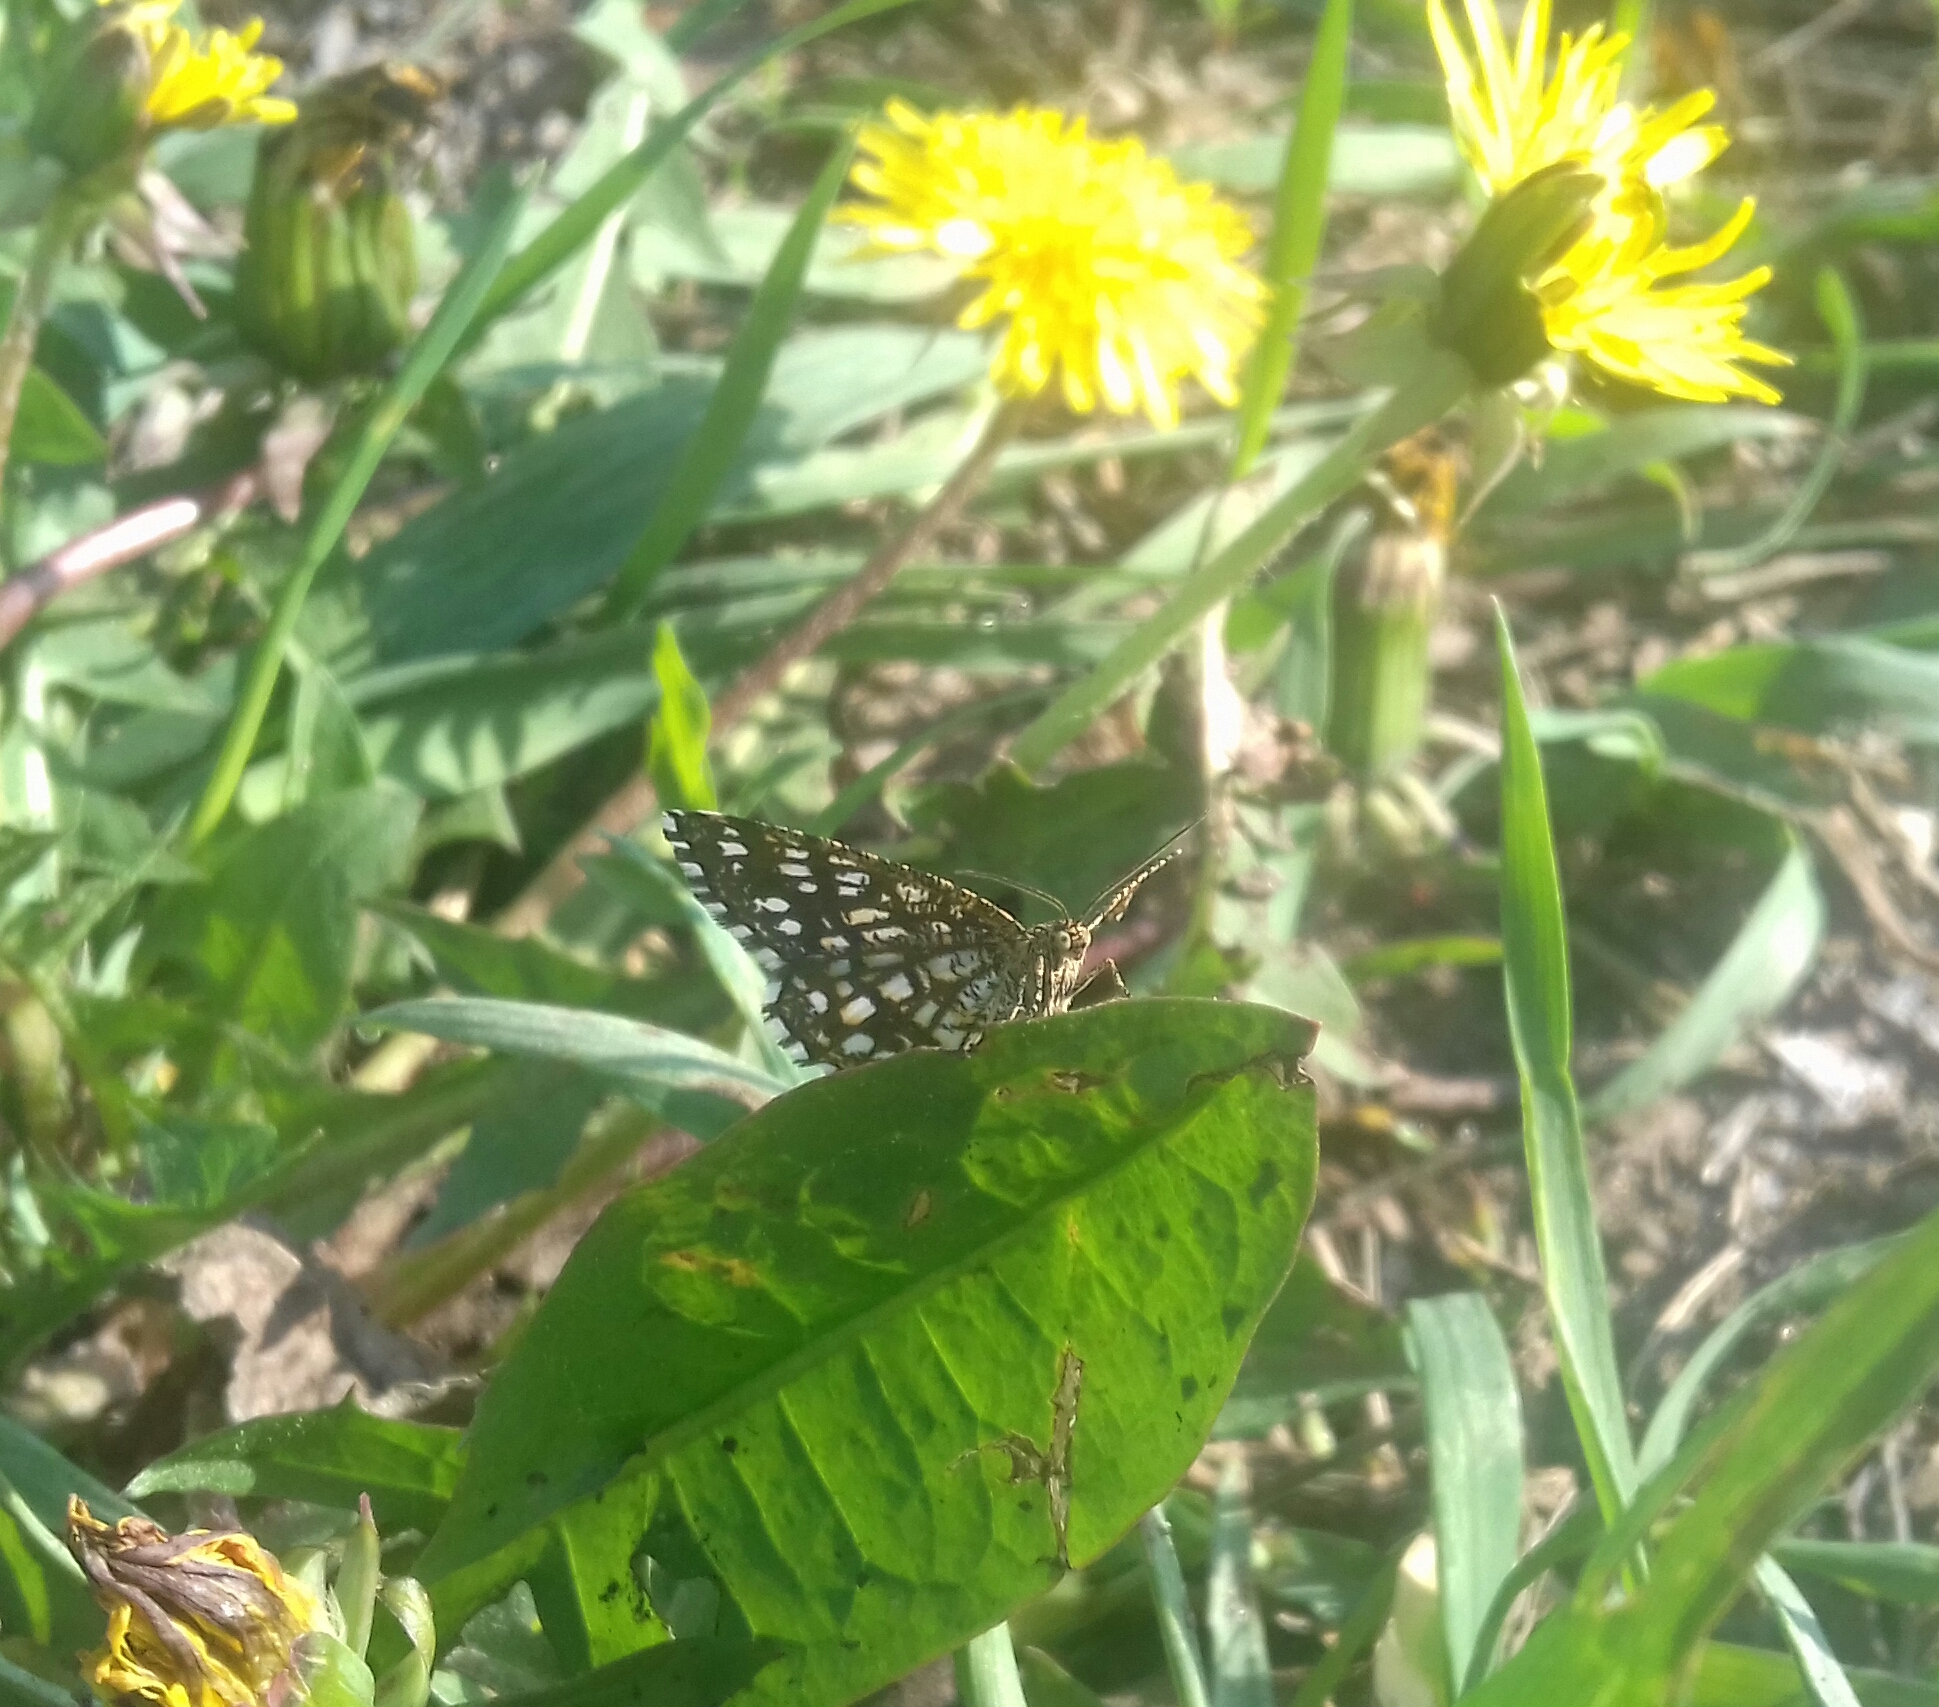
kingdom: Animalia
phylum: Arthropoda
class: Insecta
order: Lepidoptera
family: Geometridae
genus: Chiasmia
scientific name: Chiasmia clathrata
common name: Latticed heath
